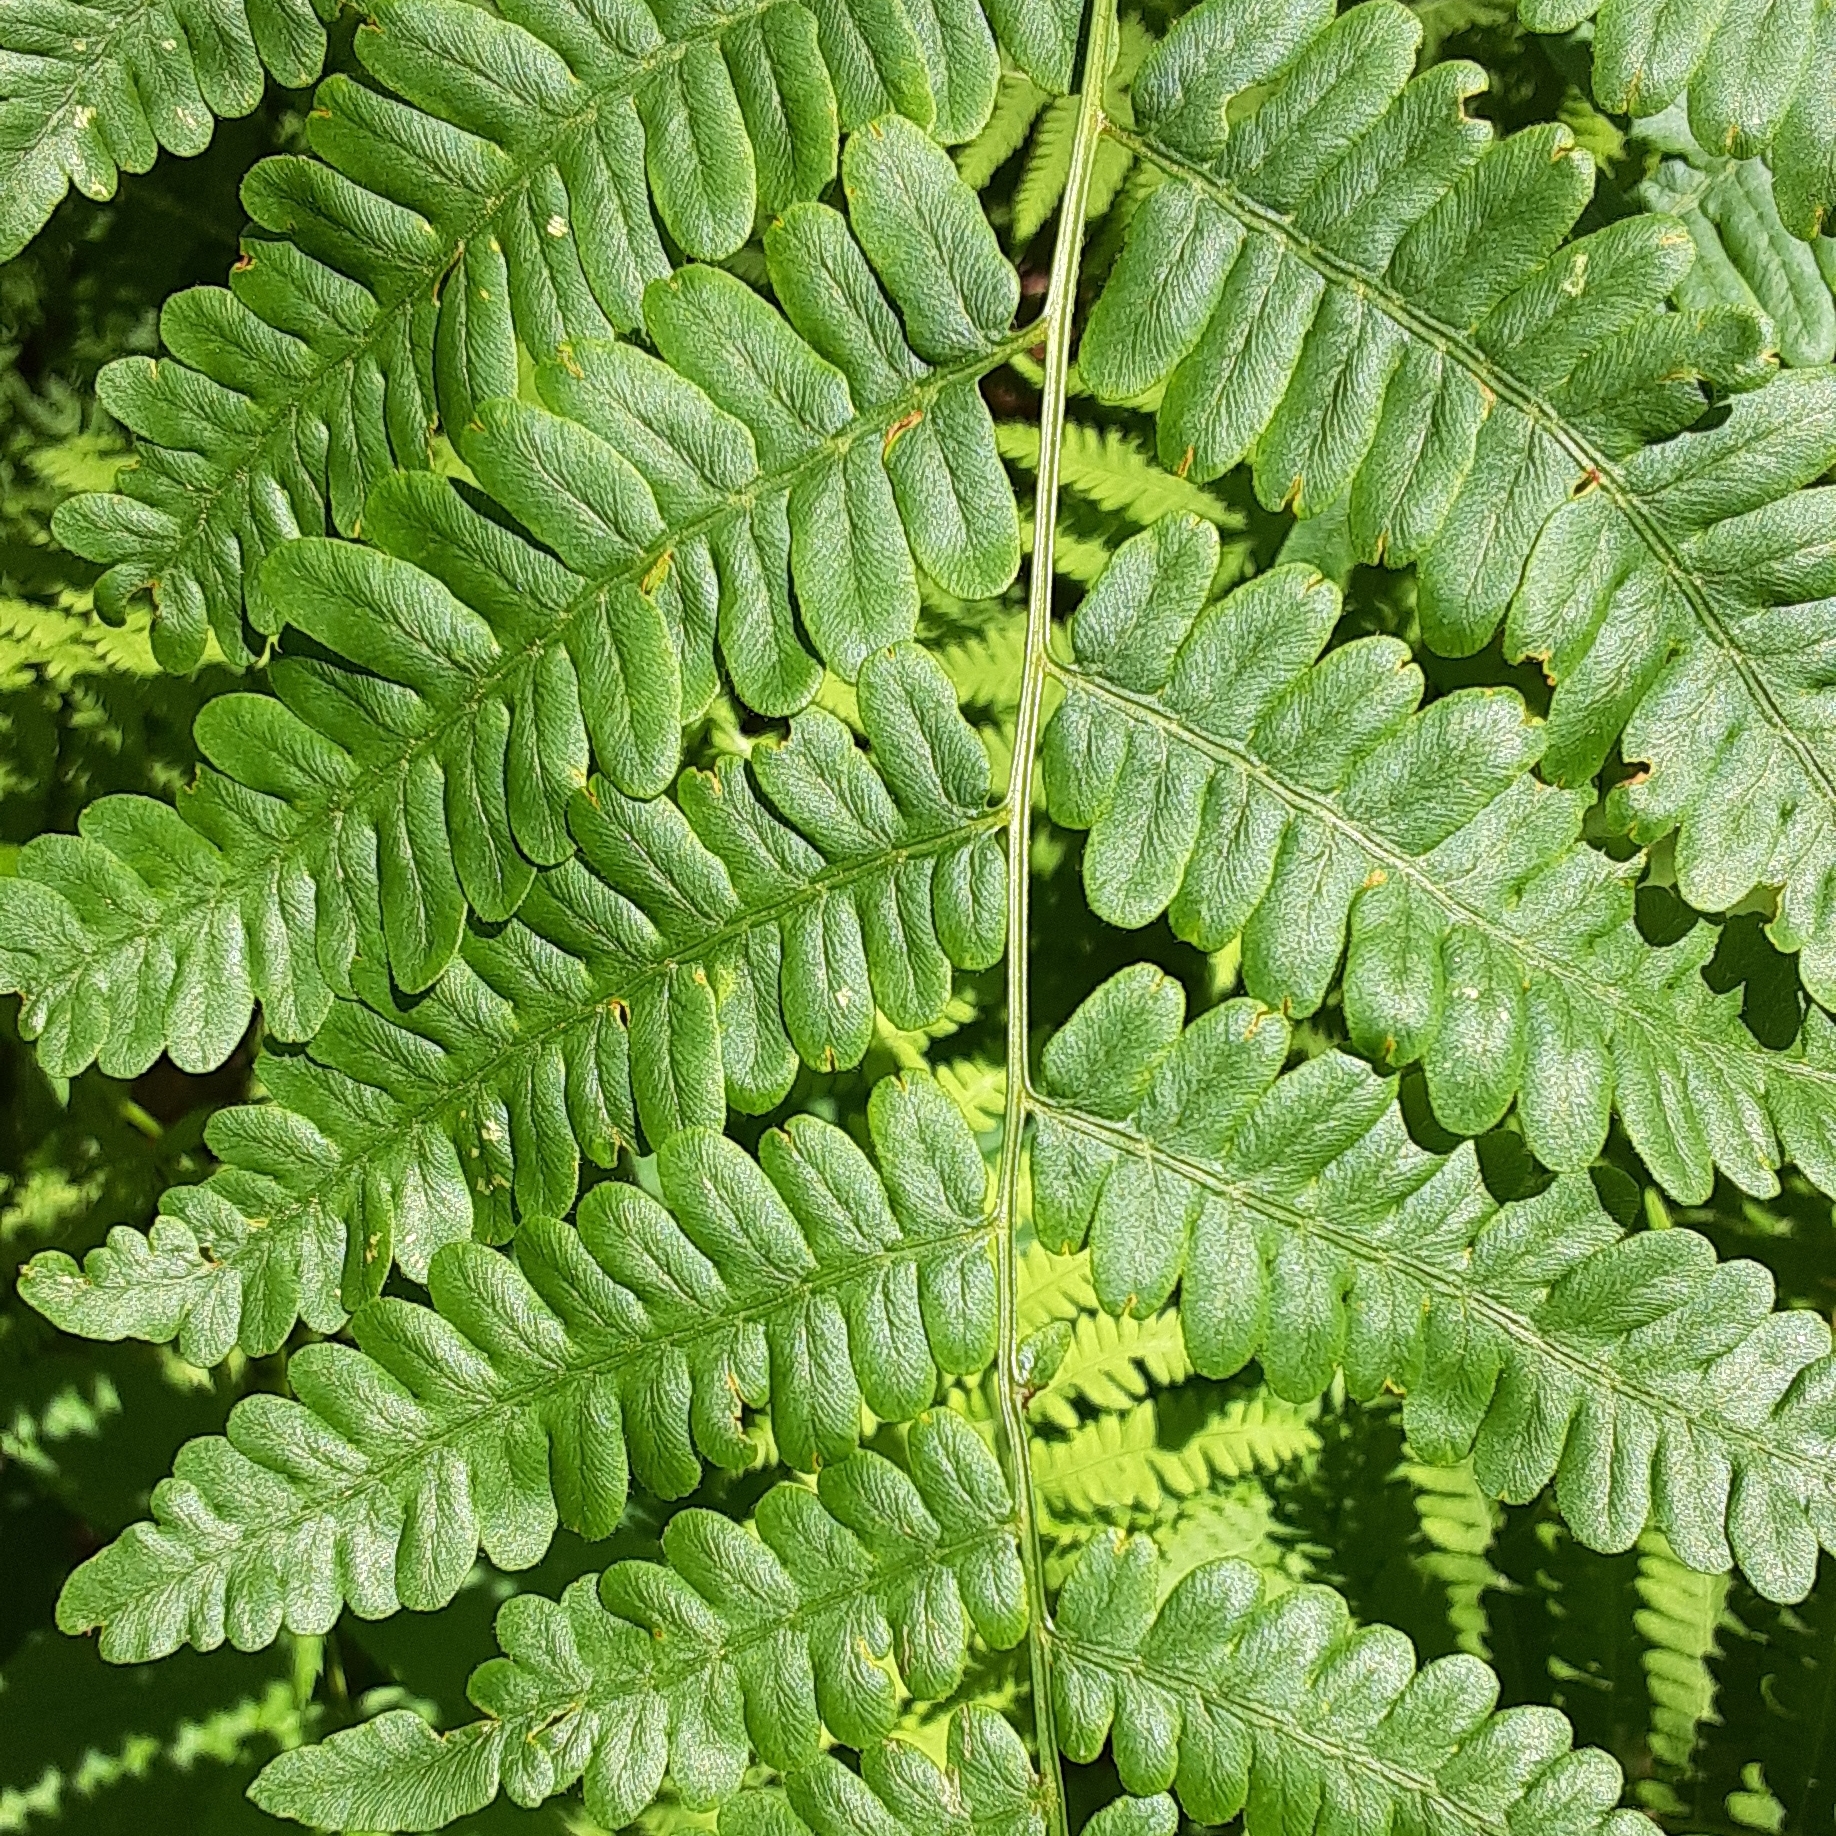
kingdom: Plantae
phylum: Tracheophyta
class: Polypodiopsida
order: Polypodiales
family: Dennstaedtiaceae
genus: Pteridium
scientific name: Pteridium aquilinum
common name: Bracken
